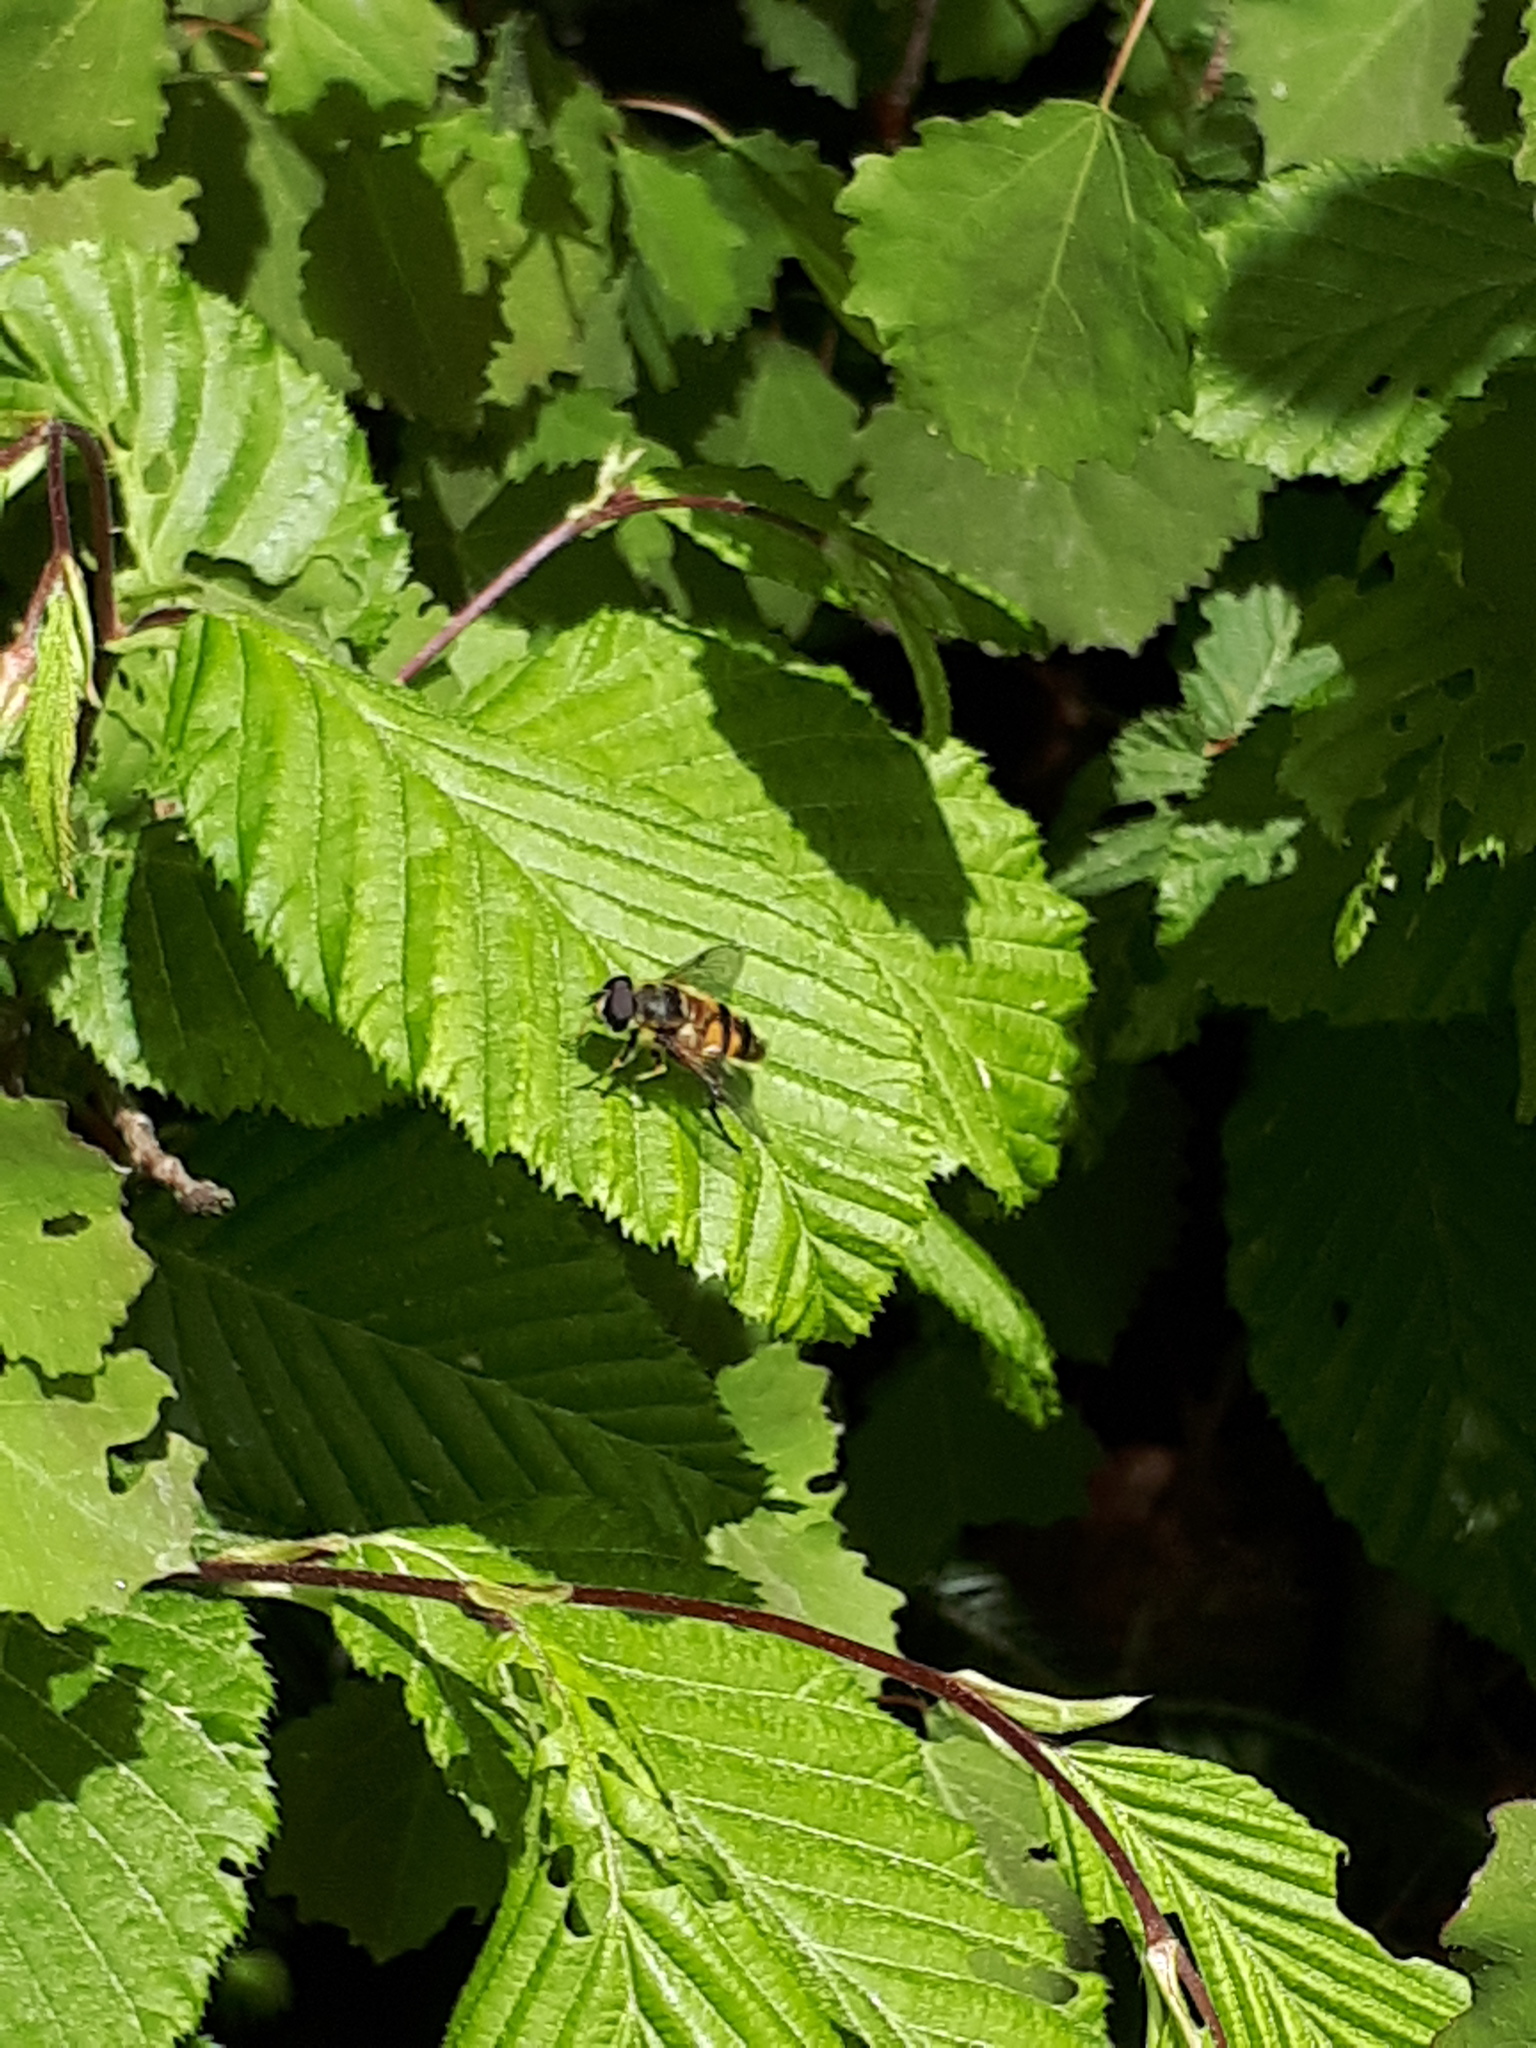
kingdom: Animalia
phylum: Arthropoda
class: Insecta
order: Diptera
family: Syrphidae
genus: Myathropa
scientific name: Myathropa florea
